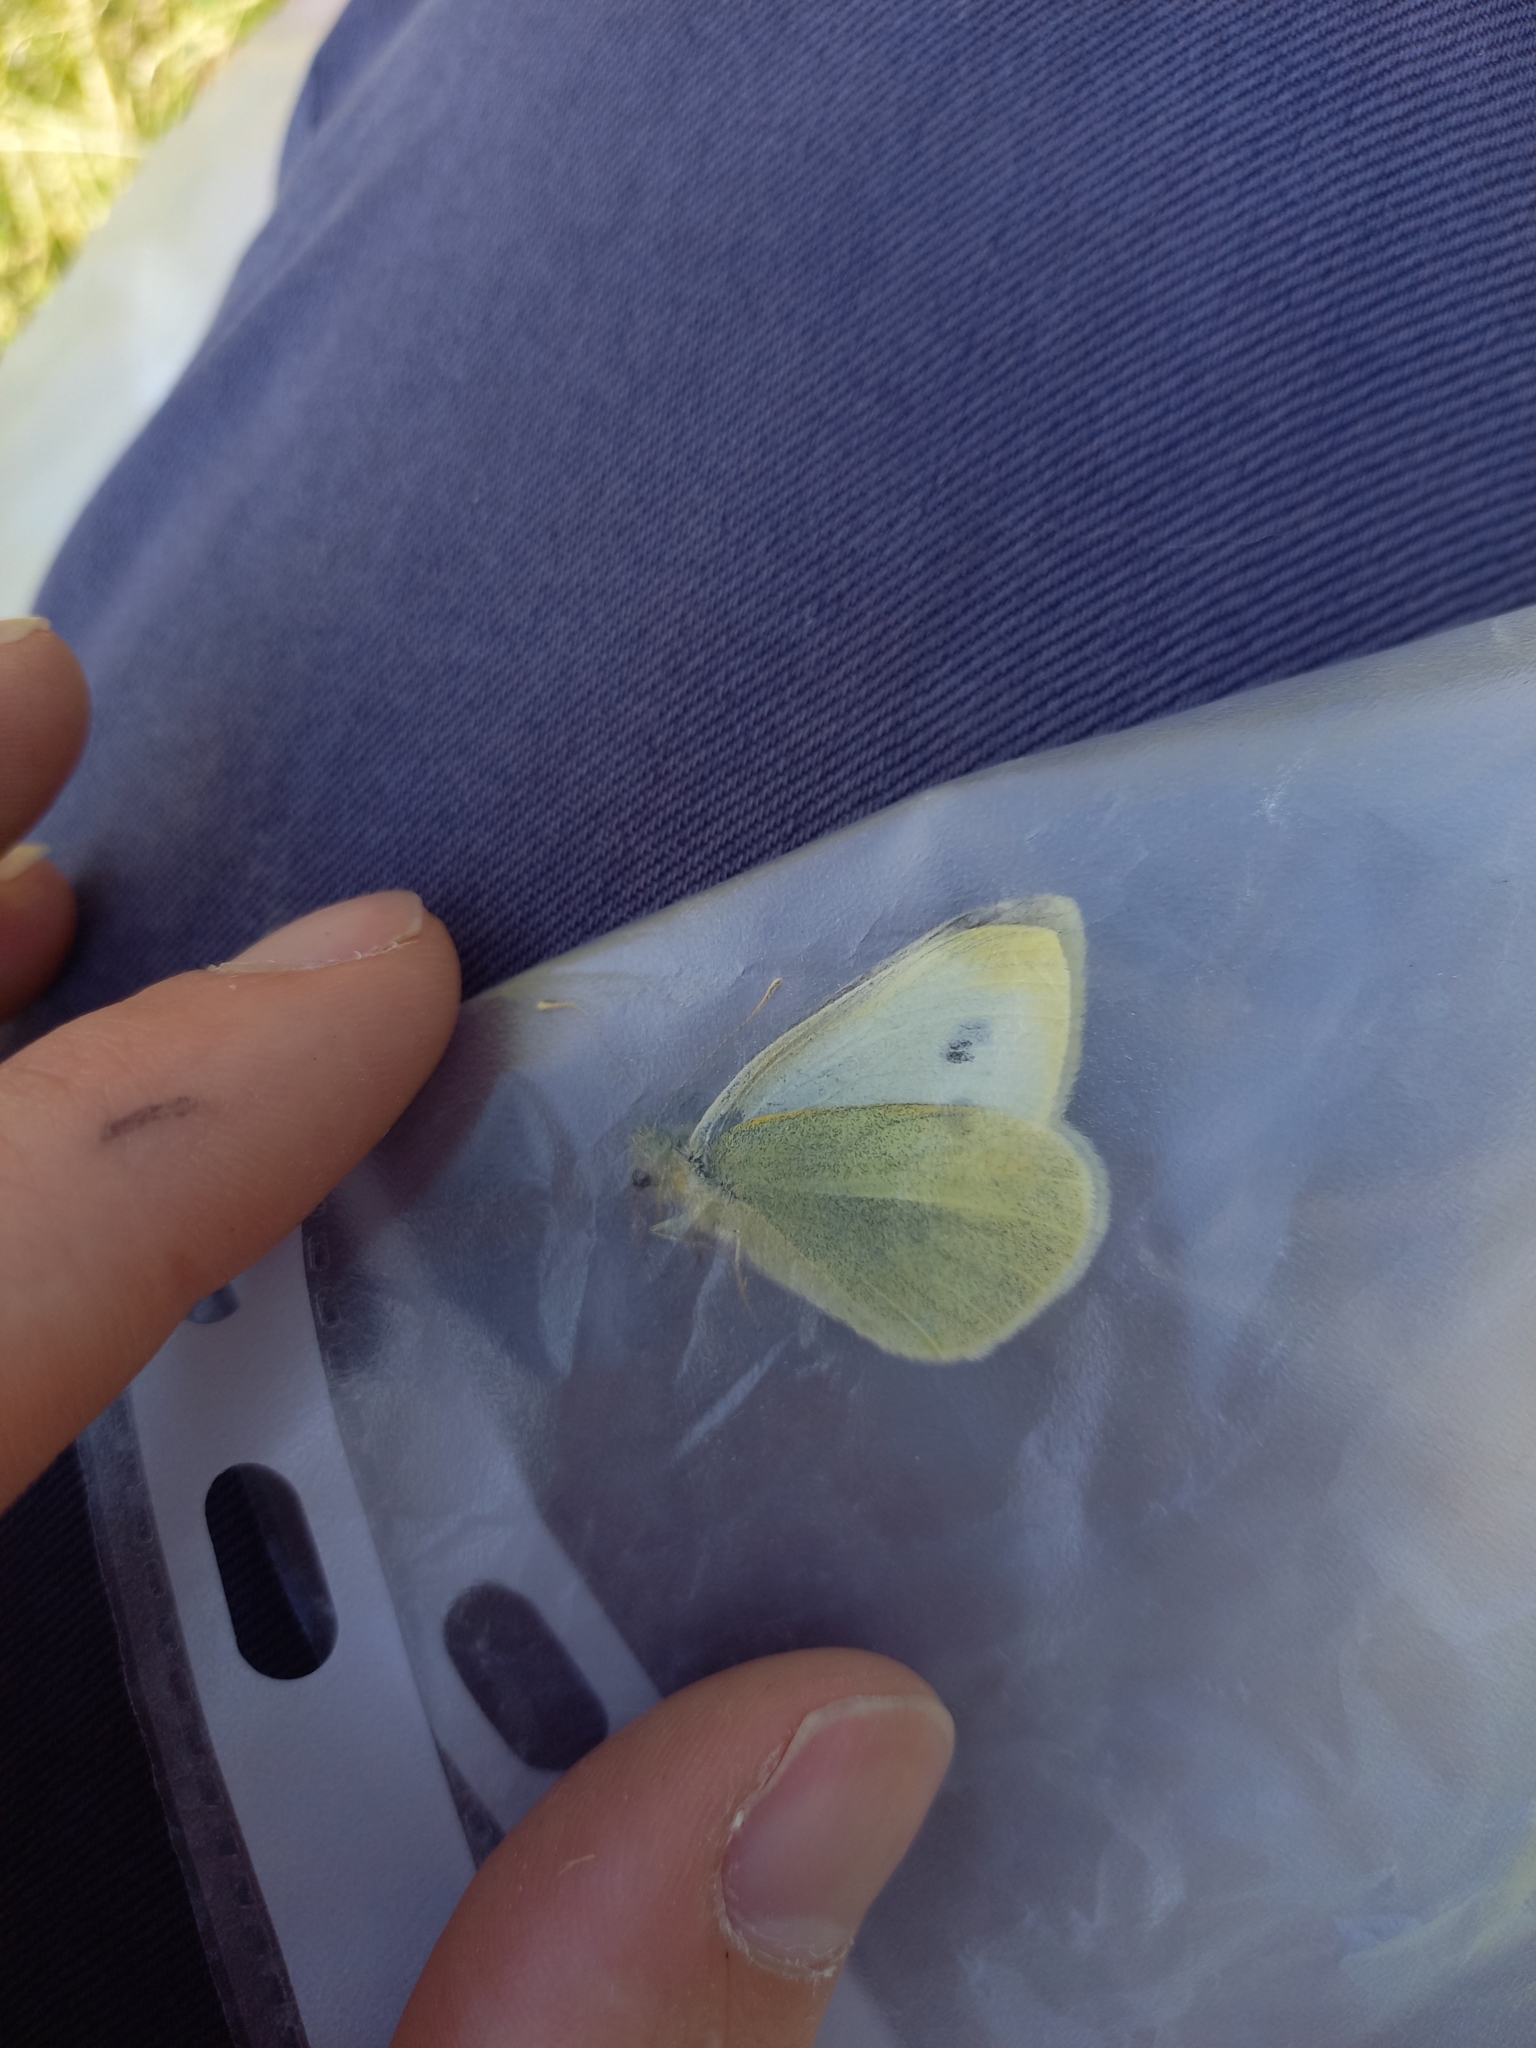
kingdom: Animalia
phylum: Arthropoda
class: Insecta
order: Lepidoptera
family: Pieridae
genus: Pieris
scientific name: Pieris rapae
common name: Small white
